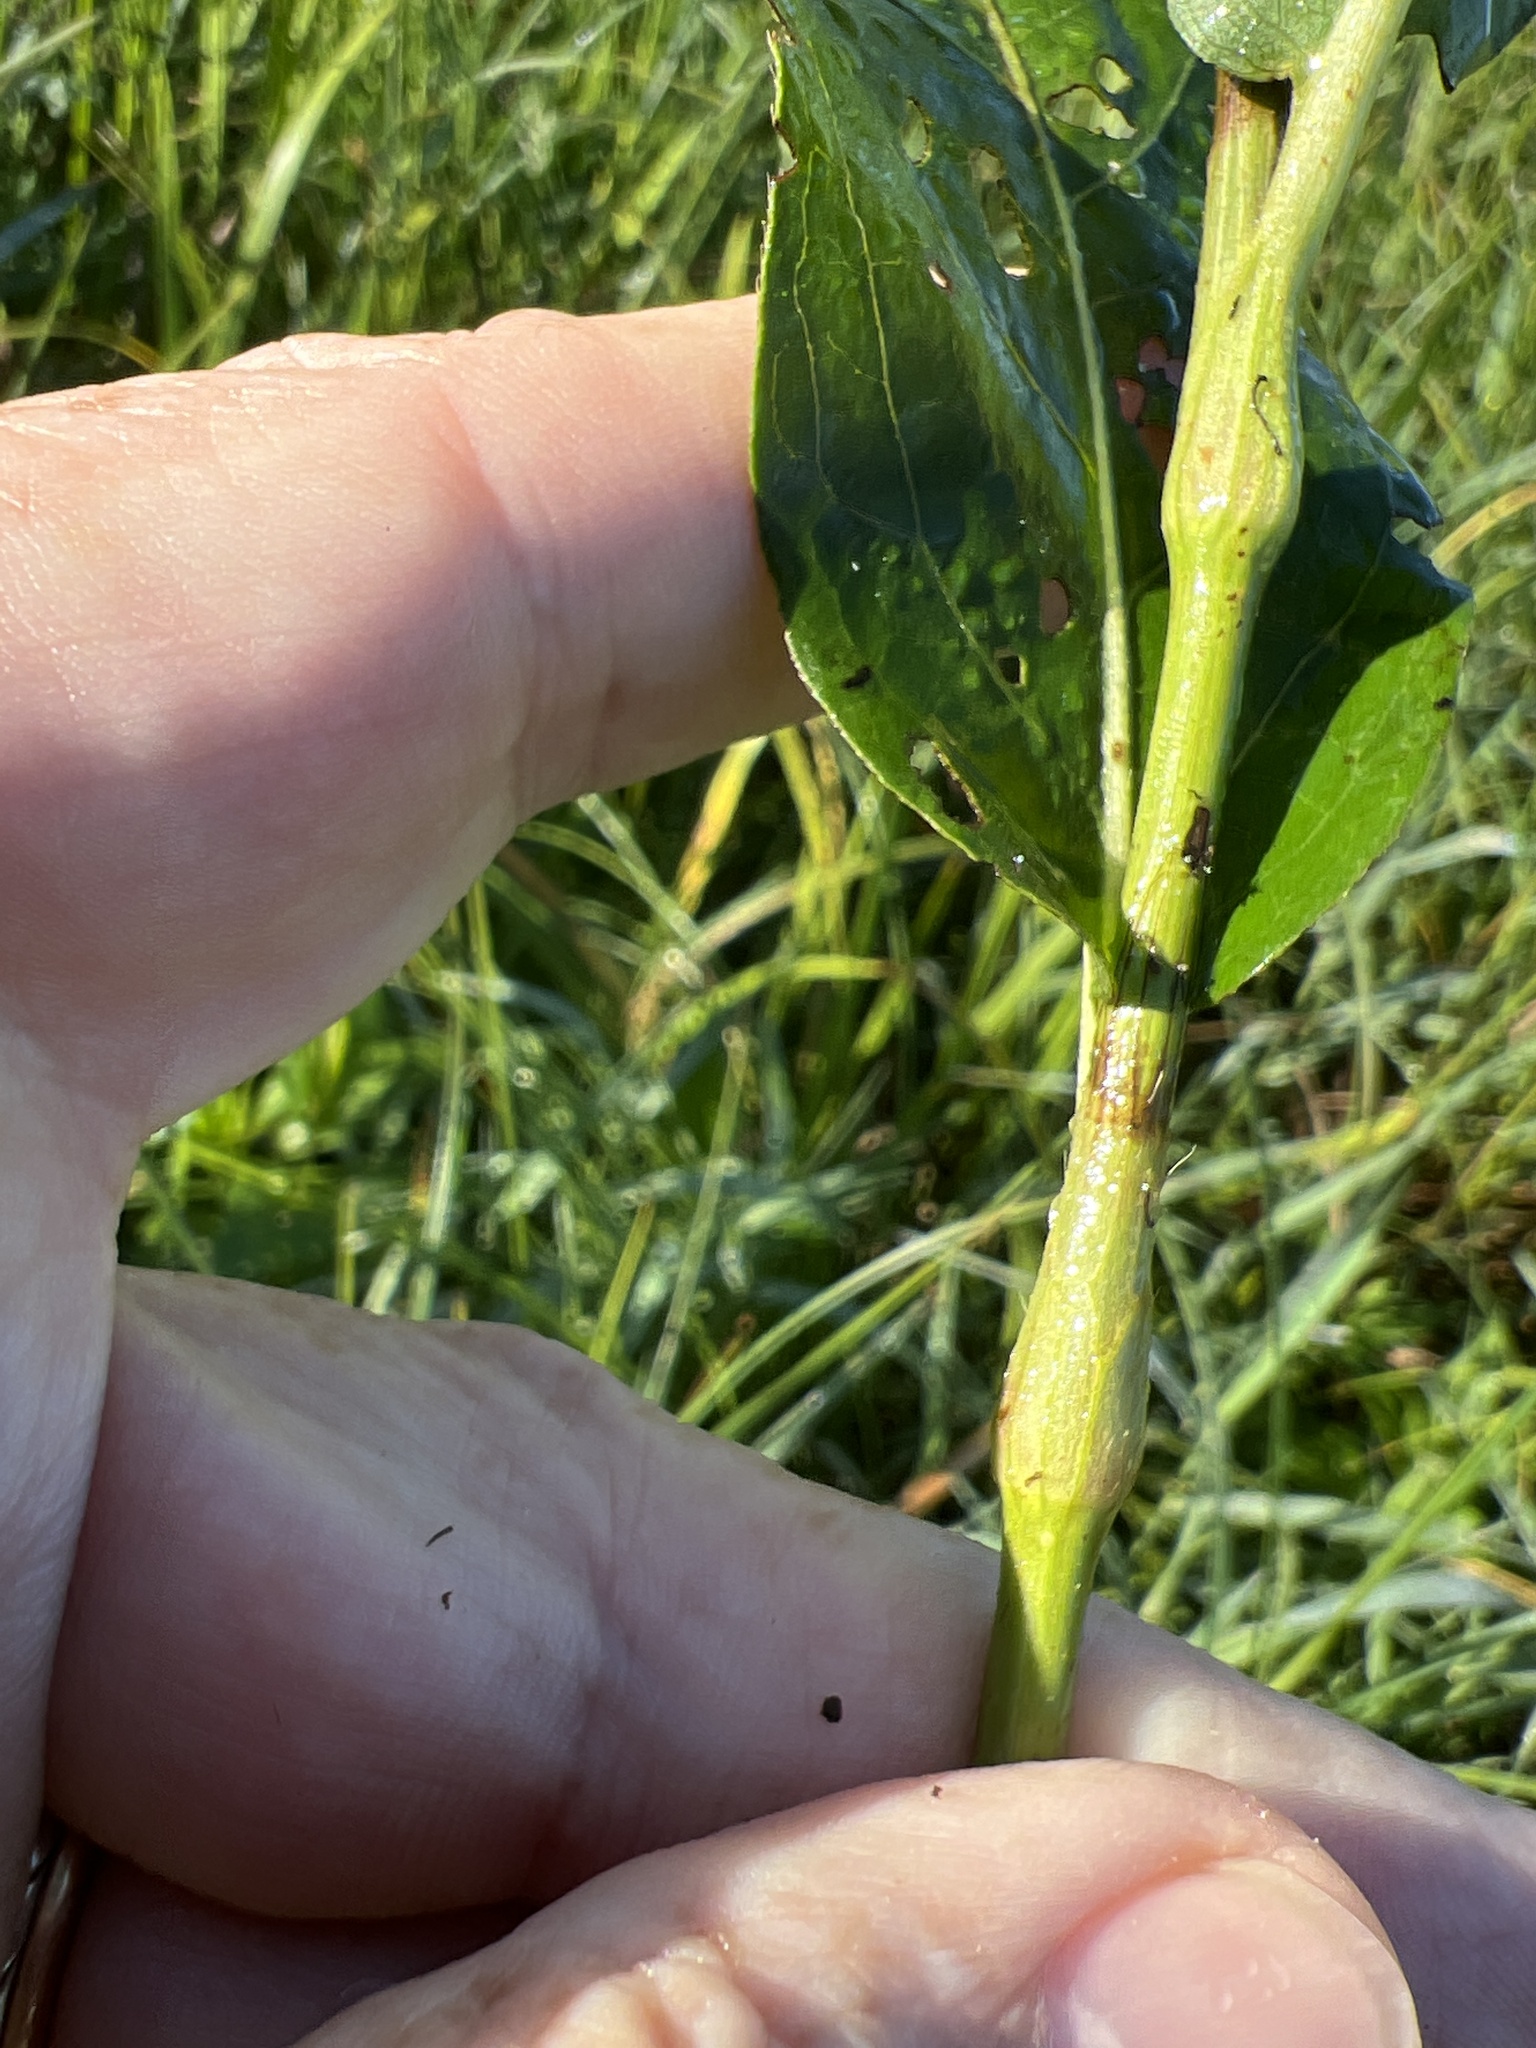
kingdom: Plantae
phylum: Tracheophyta
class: Magnoliopsida
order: Caryophyllales
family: Polygonaceae
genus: Persicaria
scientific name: Persicaria amphibia
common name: Amphibious bistort
